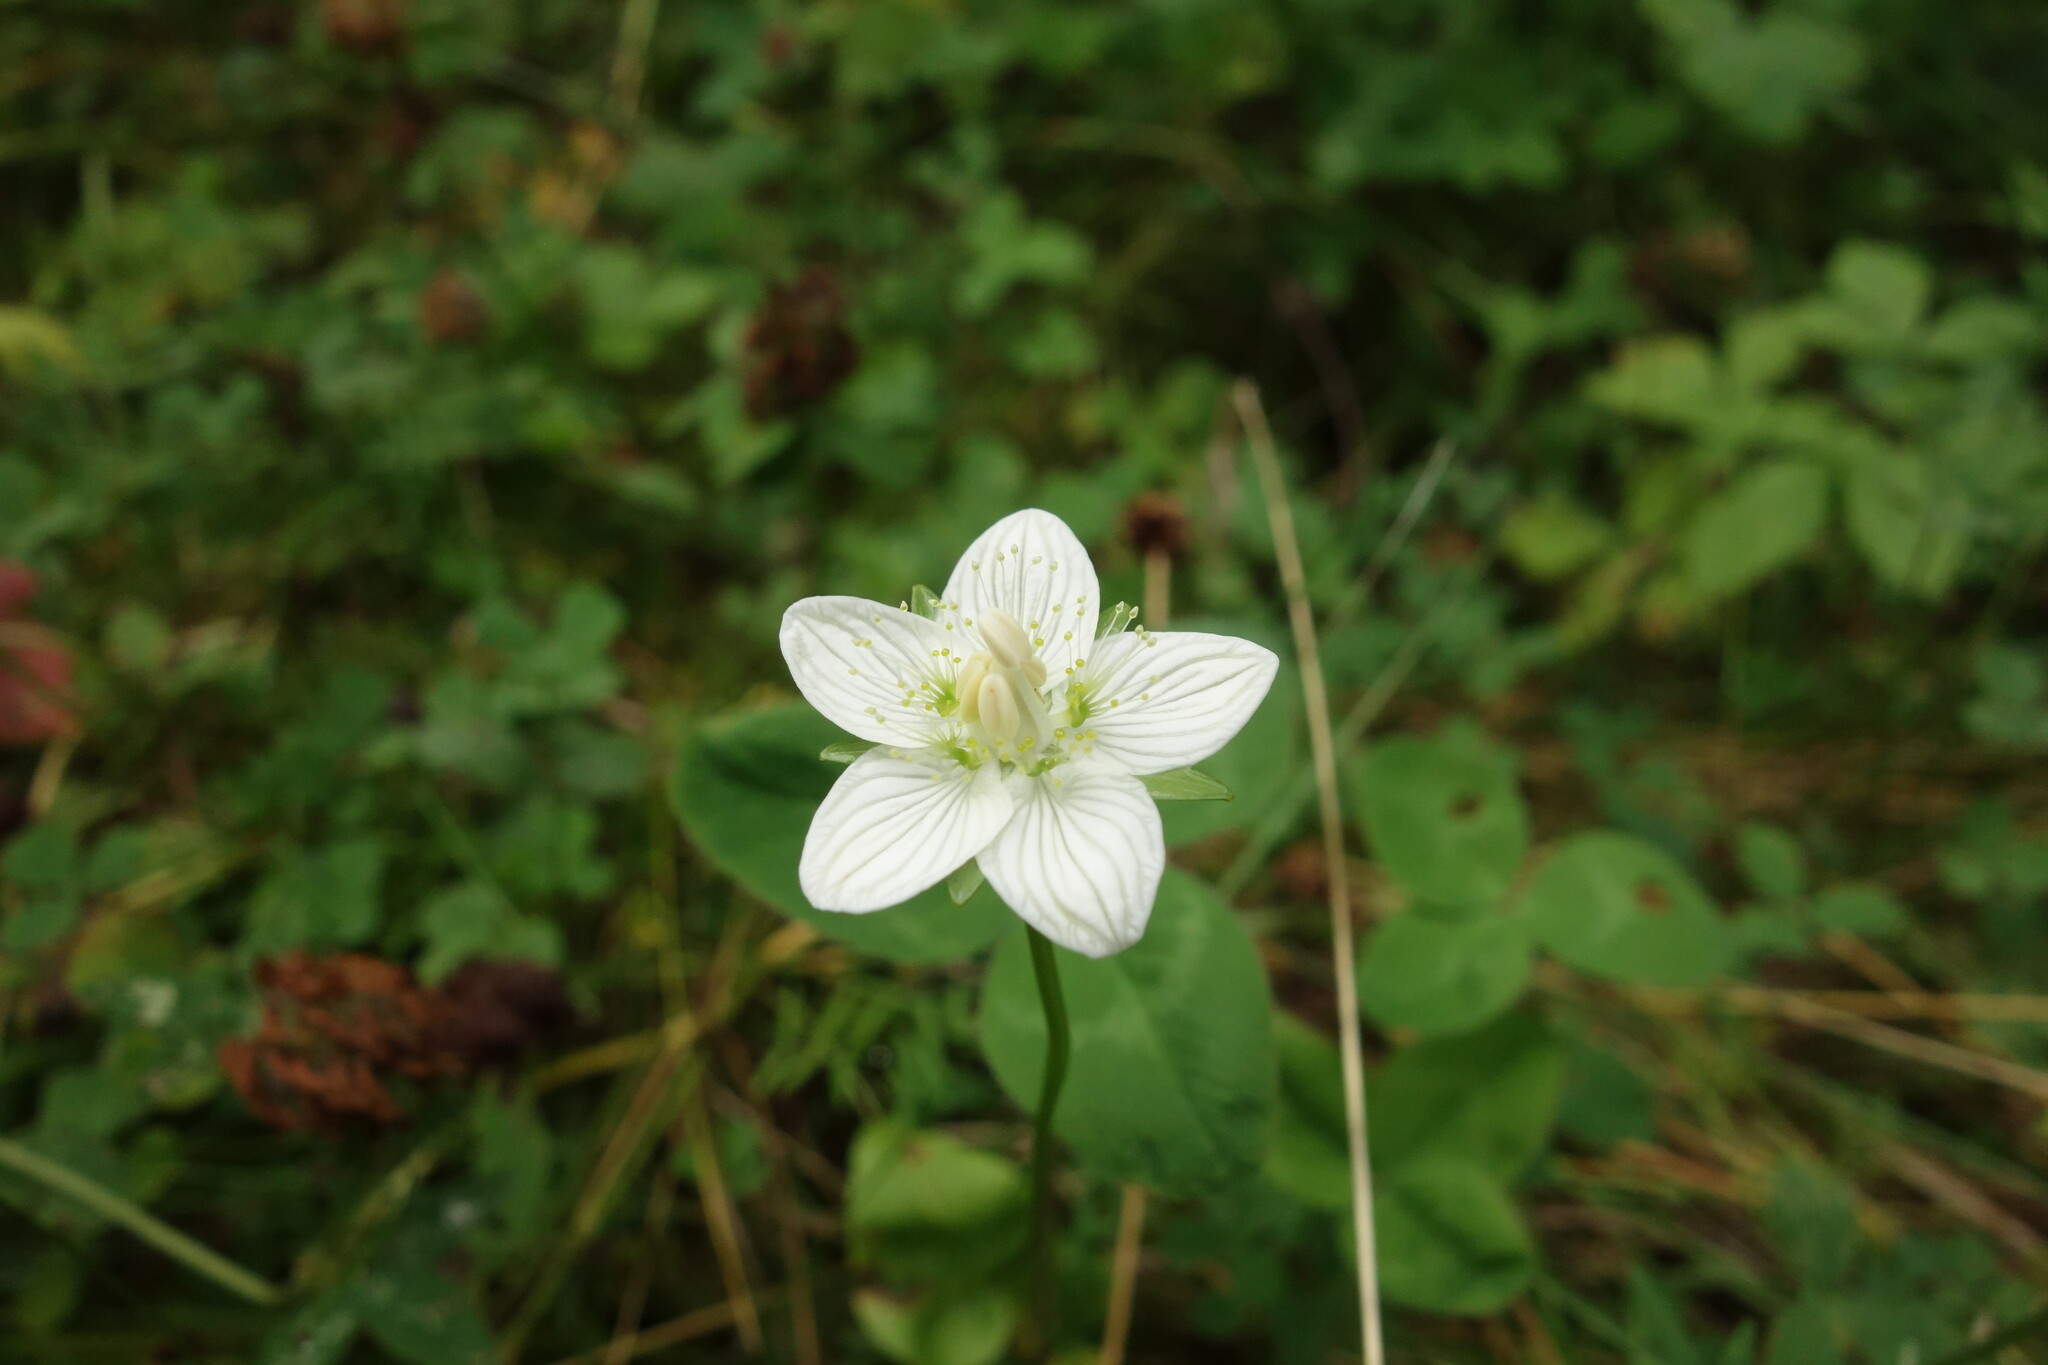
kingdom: Plantae
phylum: Tracheophyta
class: Magnoliopsida
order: Celastrales
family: Parnassiaceae
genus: Parnassia
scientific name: Parnassia palustris
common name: Grass-of-parnassus
